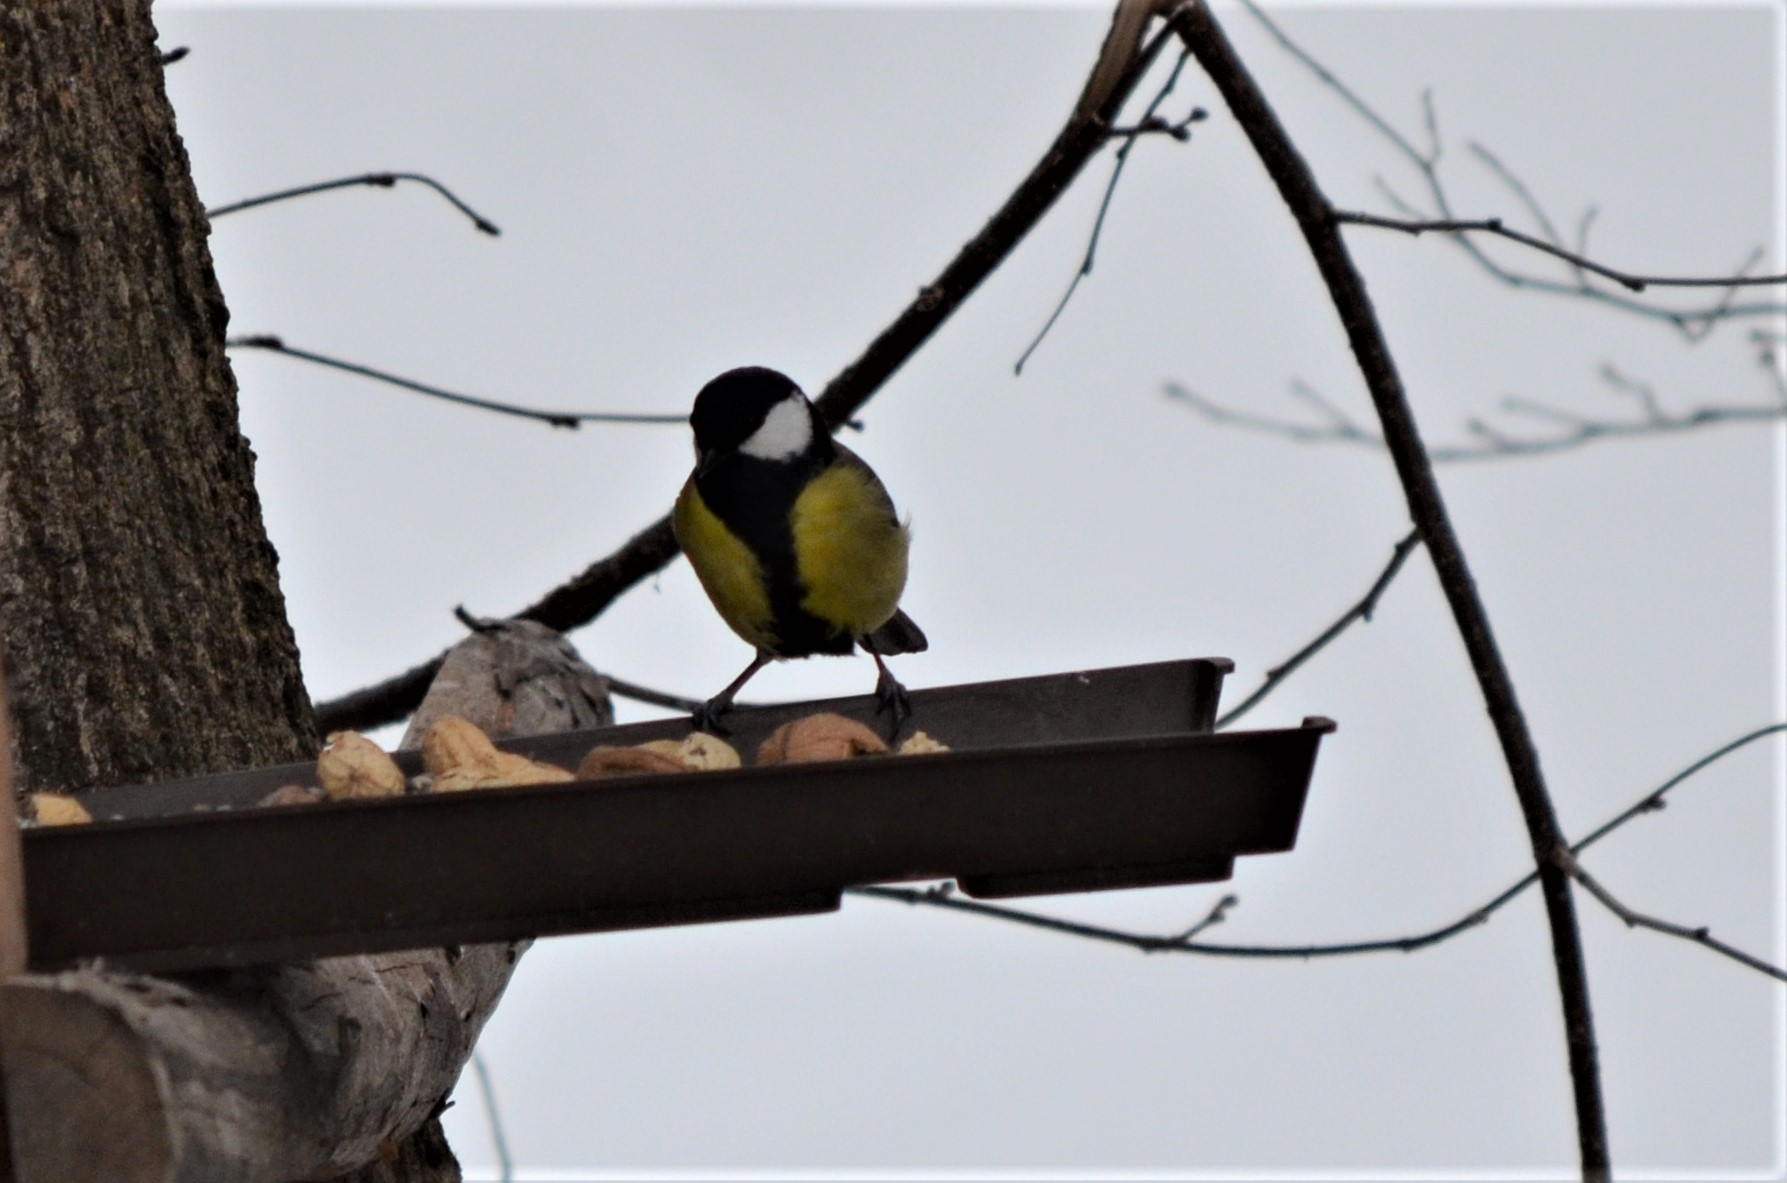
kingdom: Animalia
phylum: Chordata
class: Aves
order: Passeriformes
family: Paridae
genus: Parus
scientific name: Parus major
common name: Great tit
